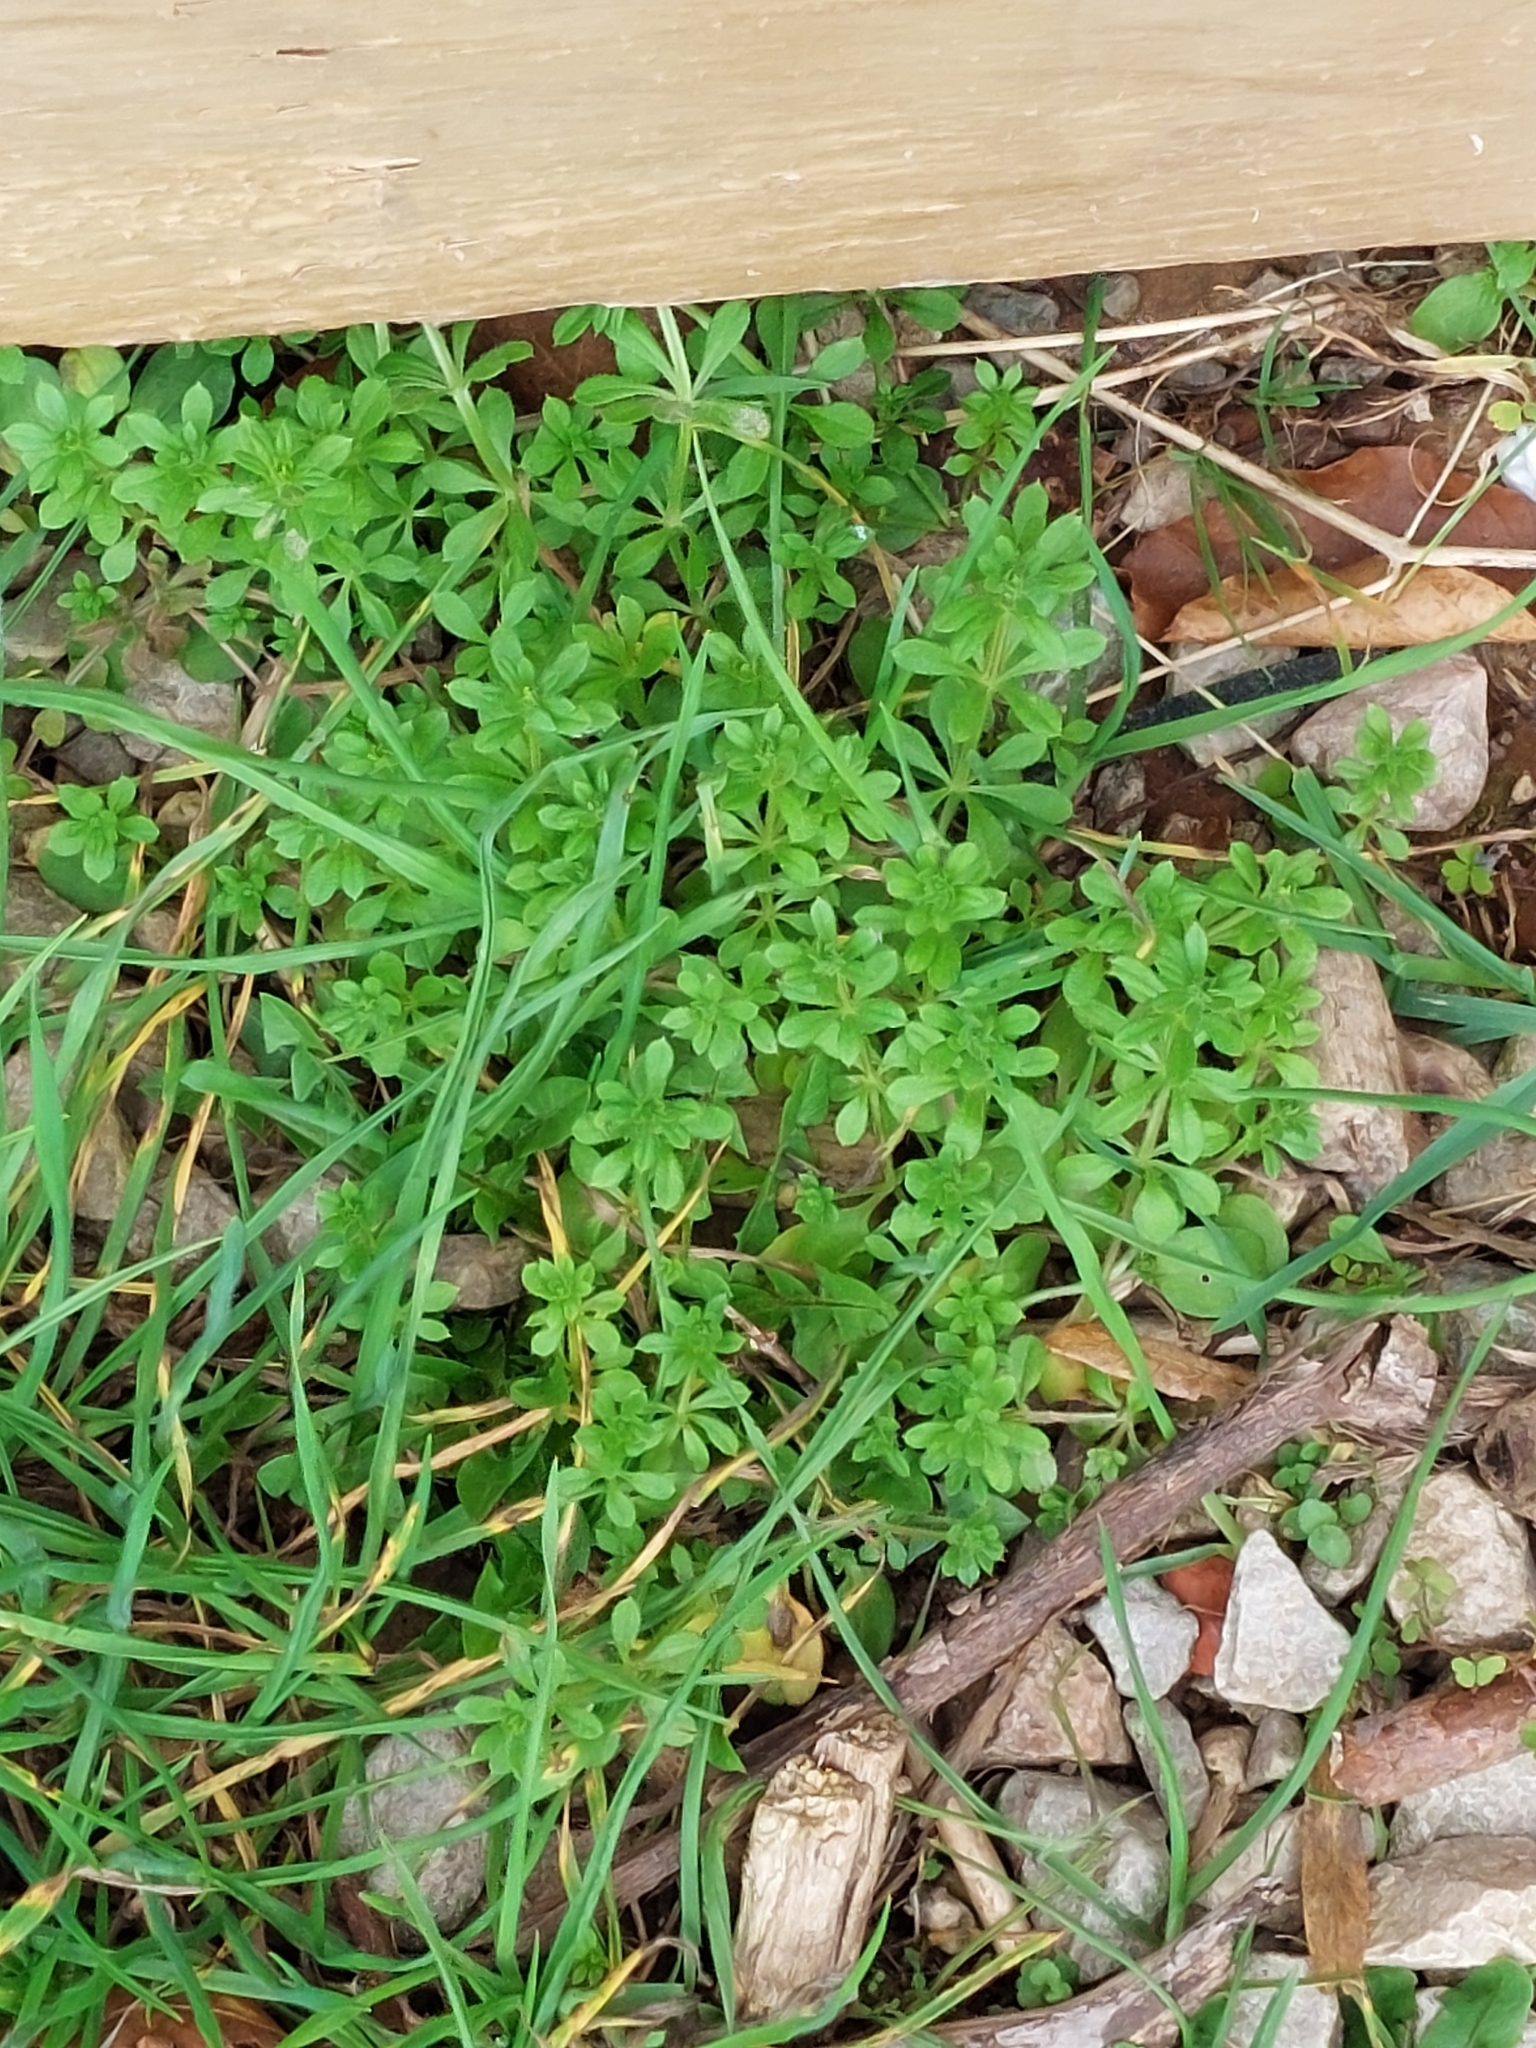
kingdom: Plantae
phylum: Tracheophyta
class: Magnoliopsida
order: Gentianales
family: Rubiaceae
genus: Galium
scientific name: Galium aparine
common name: Cleavers
